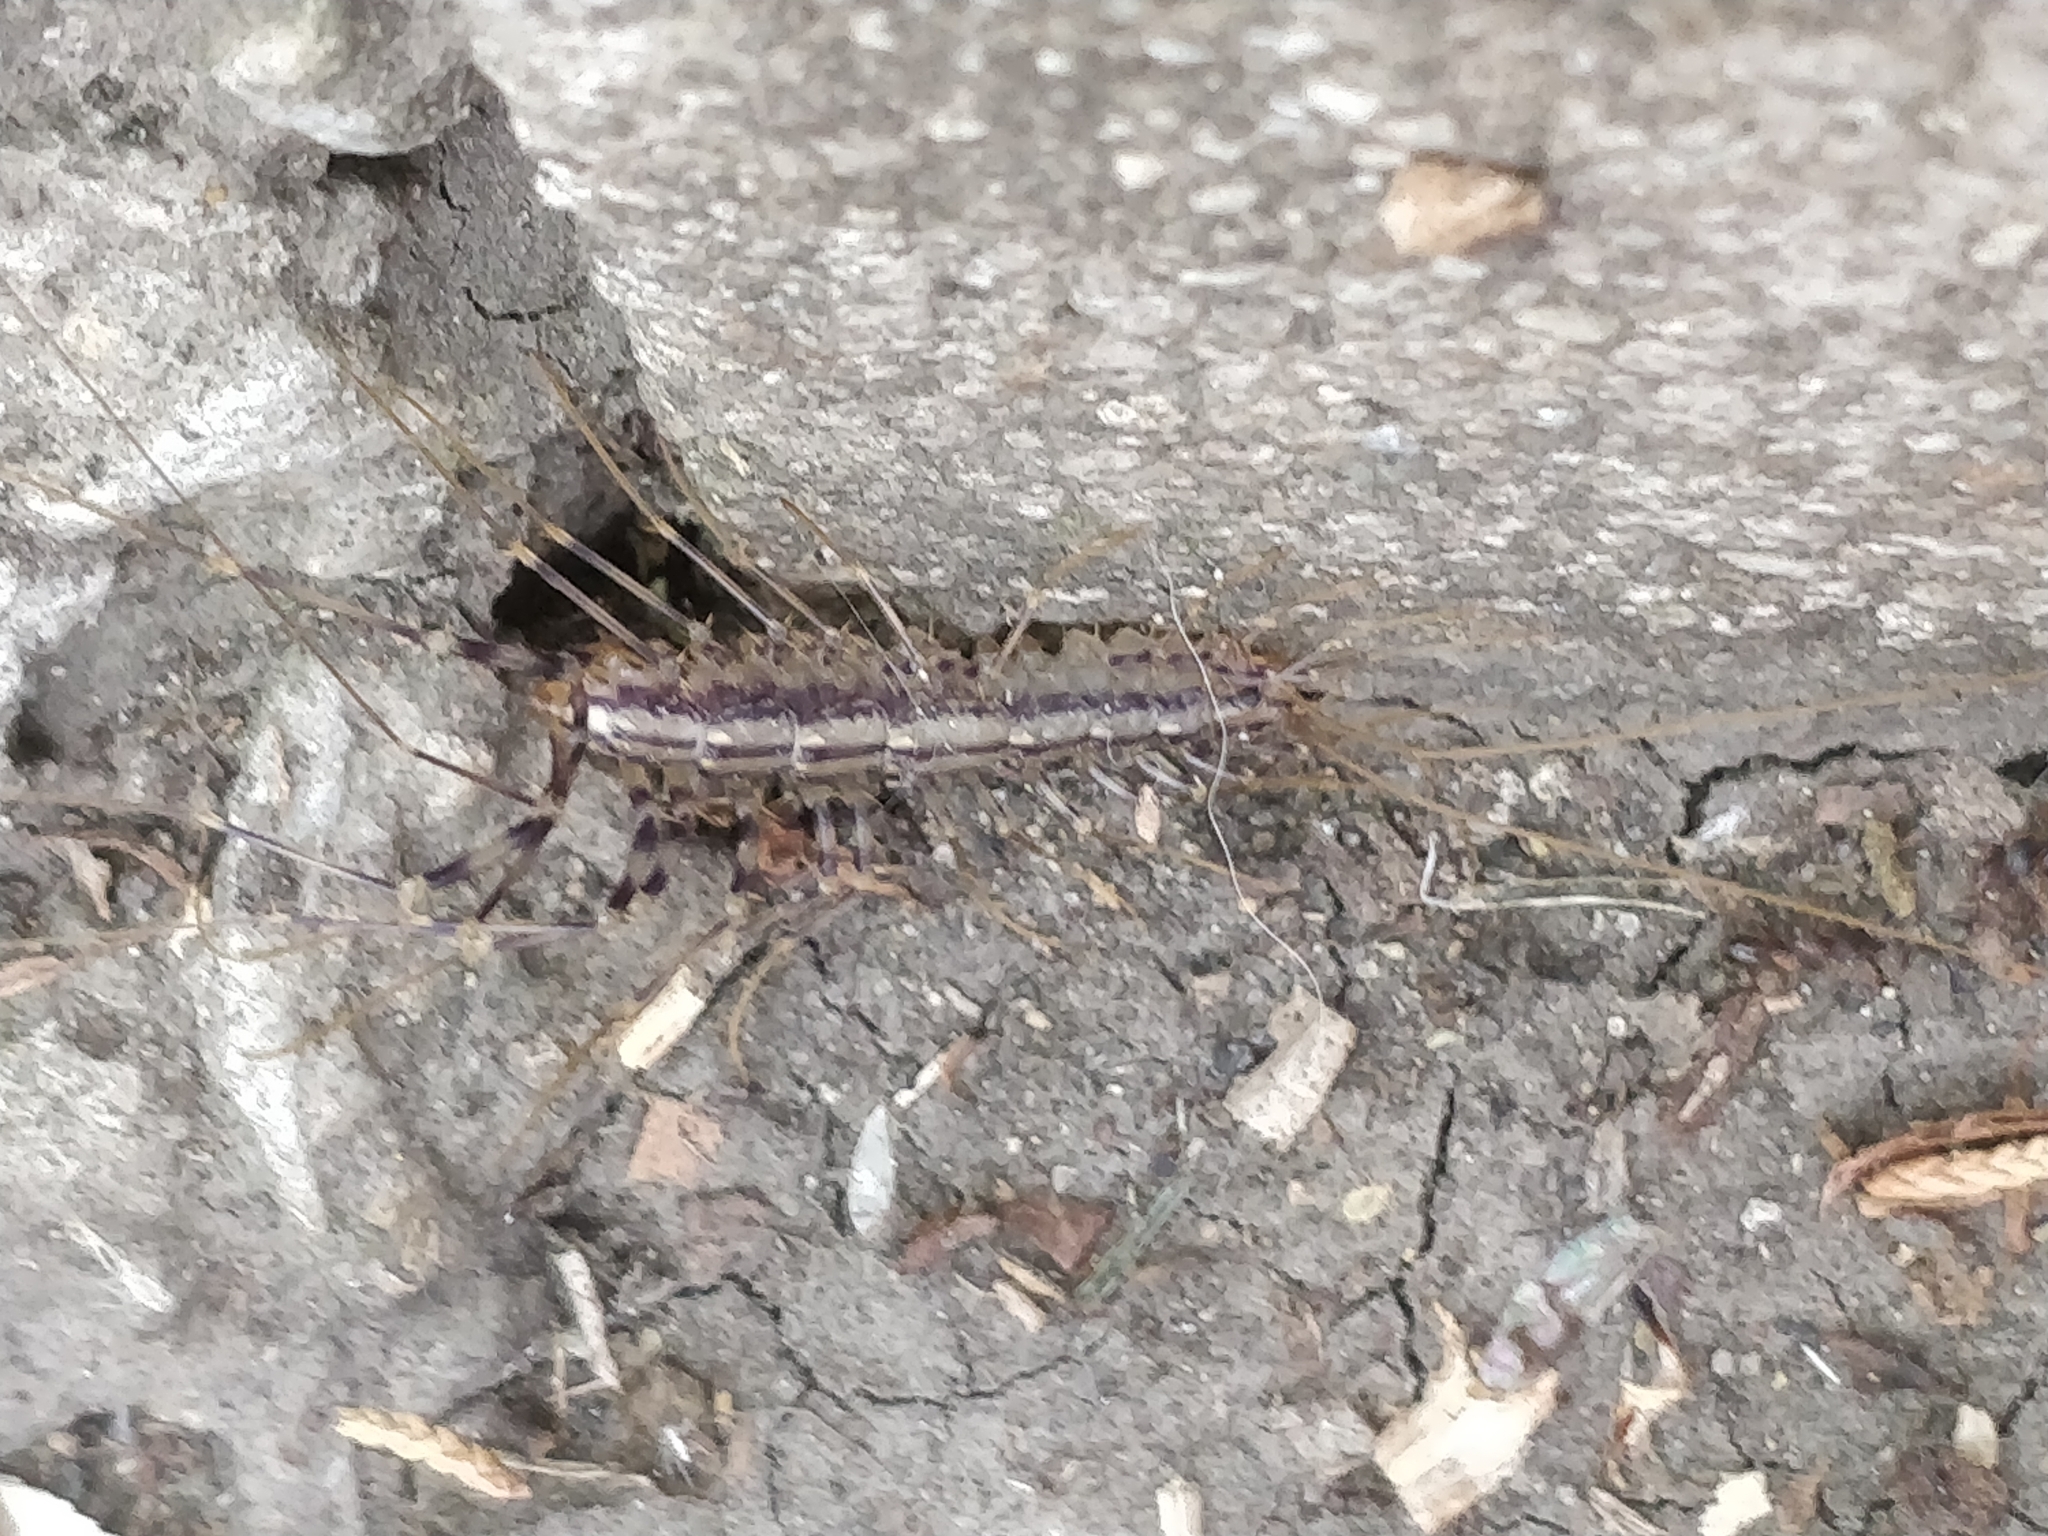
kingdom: Animalia
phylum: Arthropoda
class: Chilopoda
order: Scutigeromorpha
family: Scutigeridae
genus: Scutigera
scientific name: Scutigera coleoptrata
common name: House centipede
